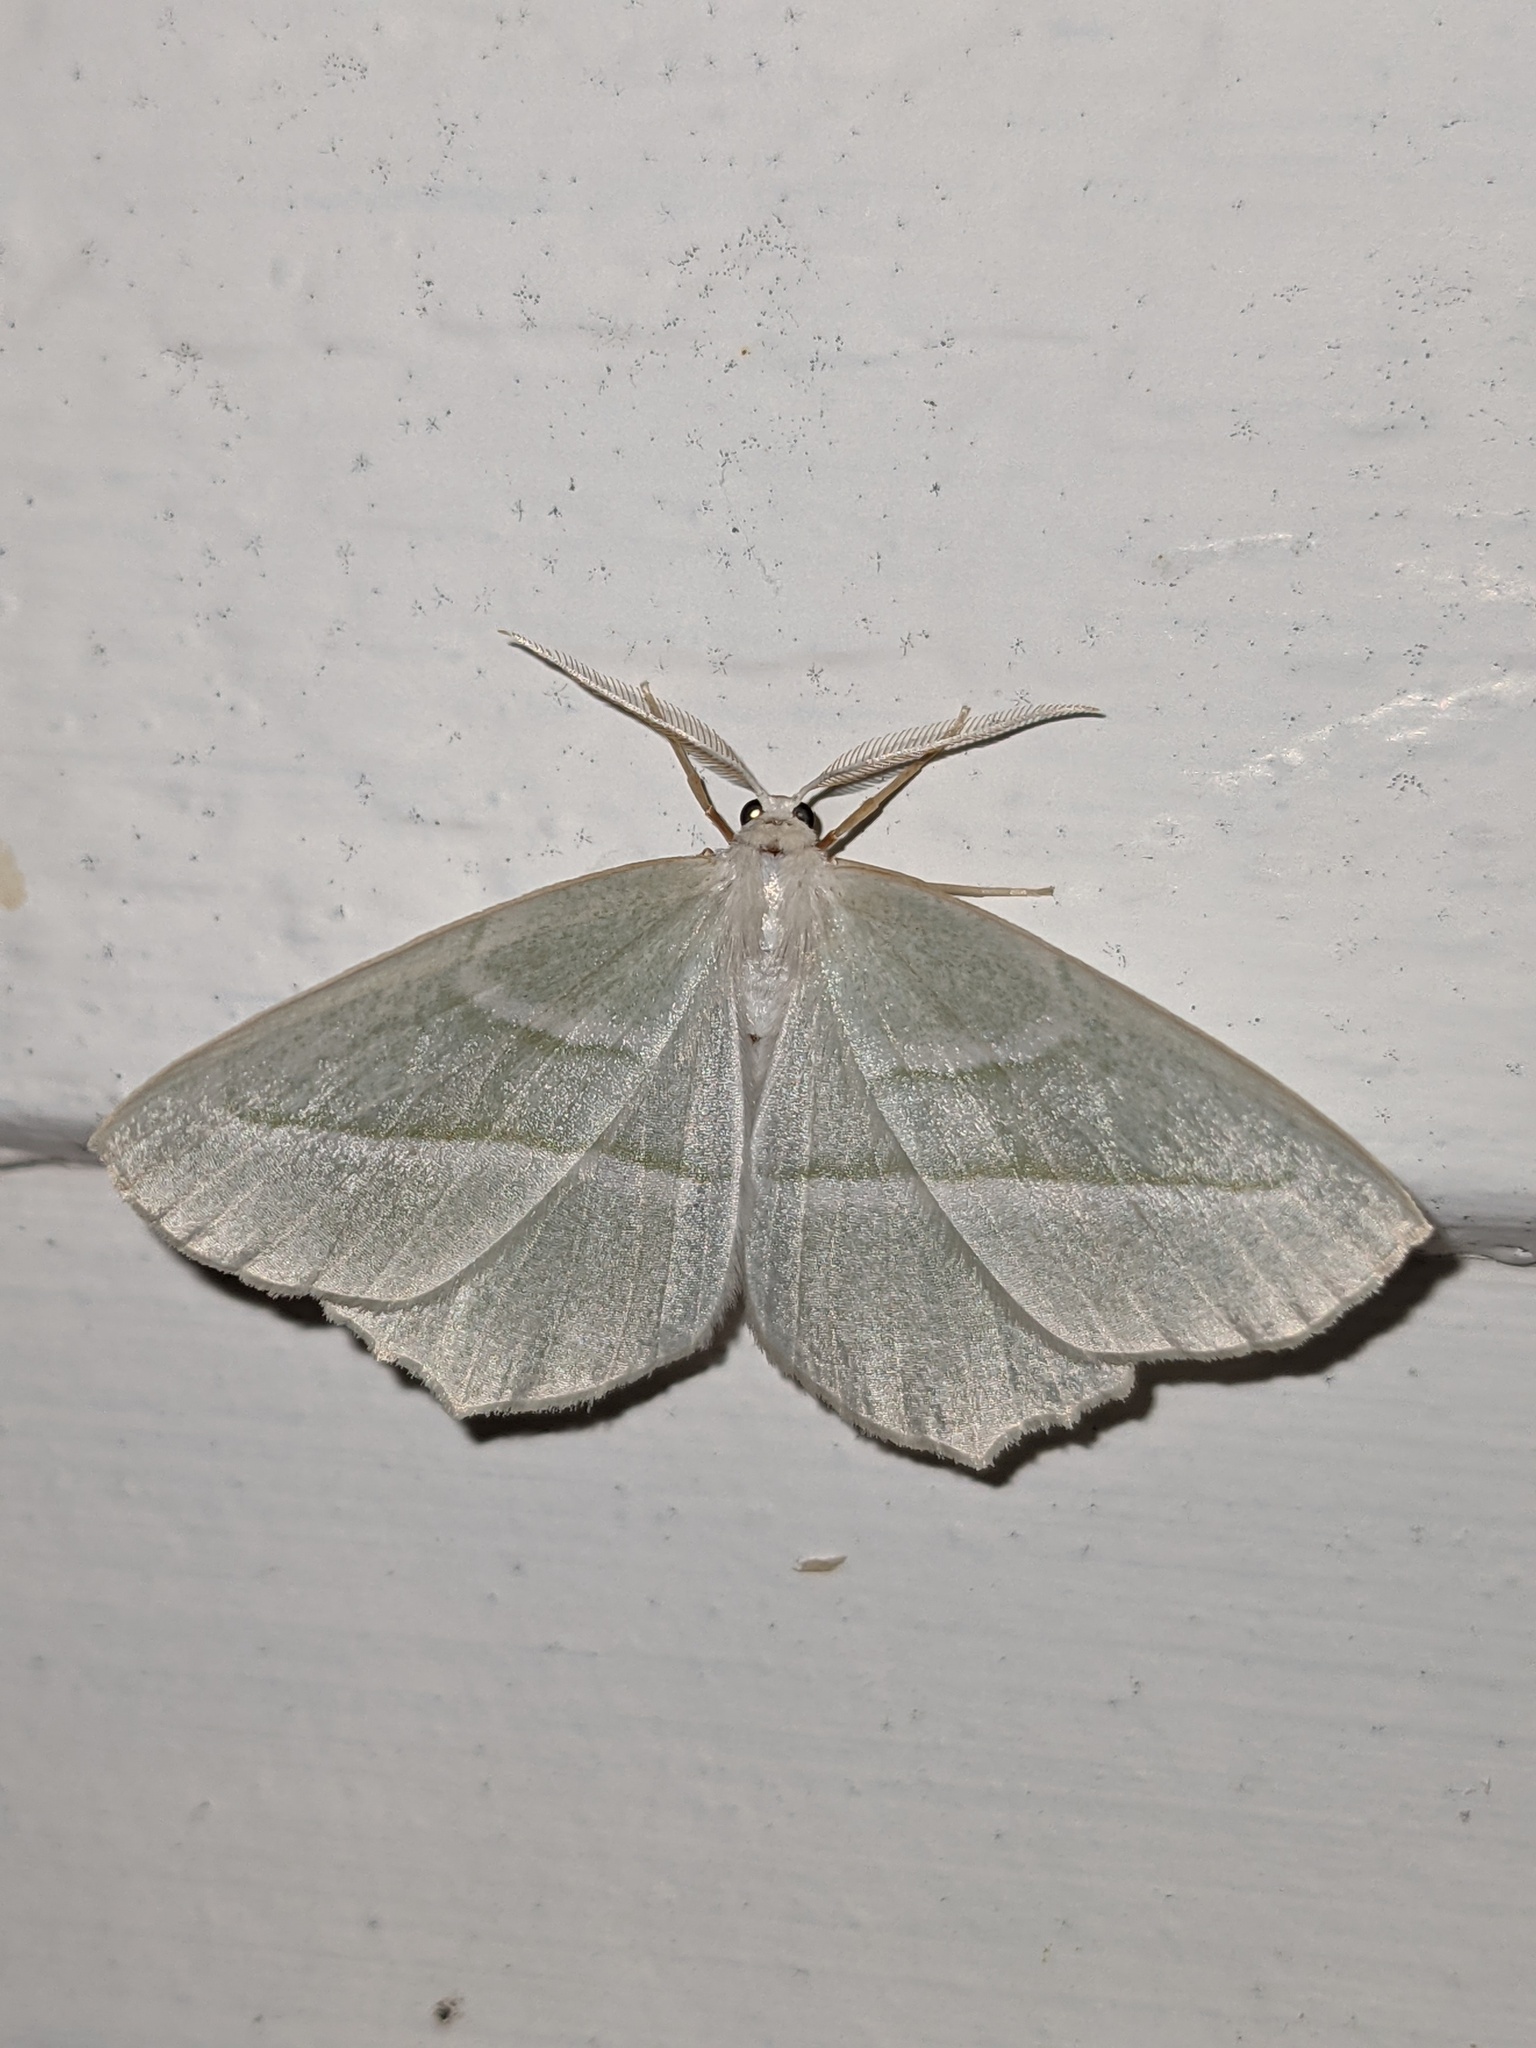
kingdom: Animalia
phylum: Arthropoda
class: Insecta
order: Lepidoptera
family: Geometridae
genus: Campaea
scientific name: Campaea perlata
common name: Fringed looper
